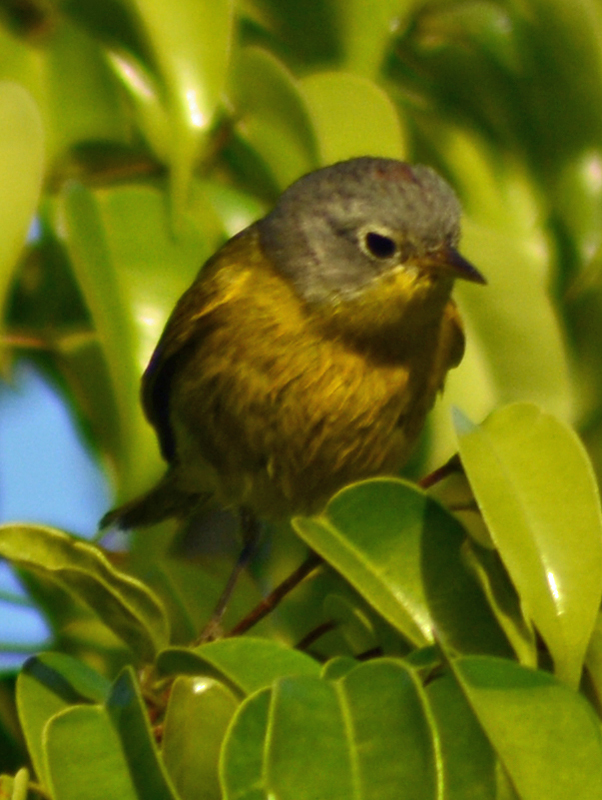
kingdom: Animalia
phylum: Chordata
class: Aves
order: Passeriformes
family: Parulidae
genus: Leiothlypis
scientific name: Leiothlypis ruficapilla
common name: Nashville warbler
